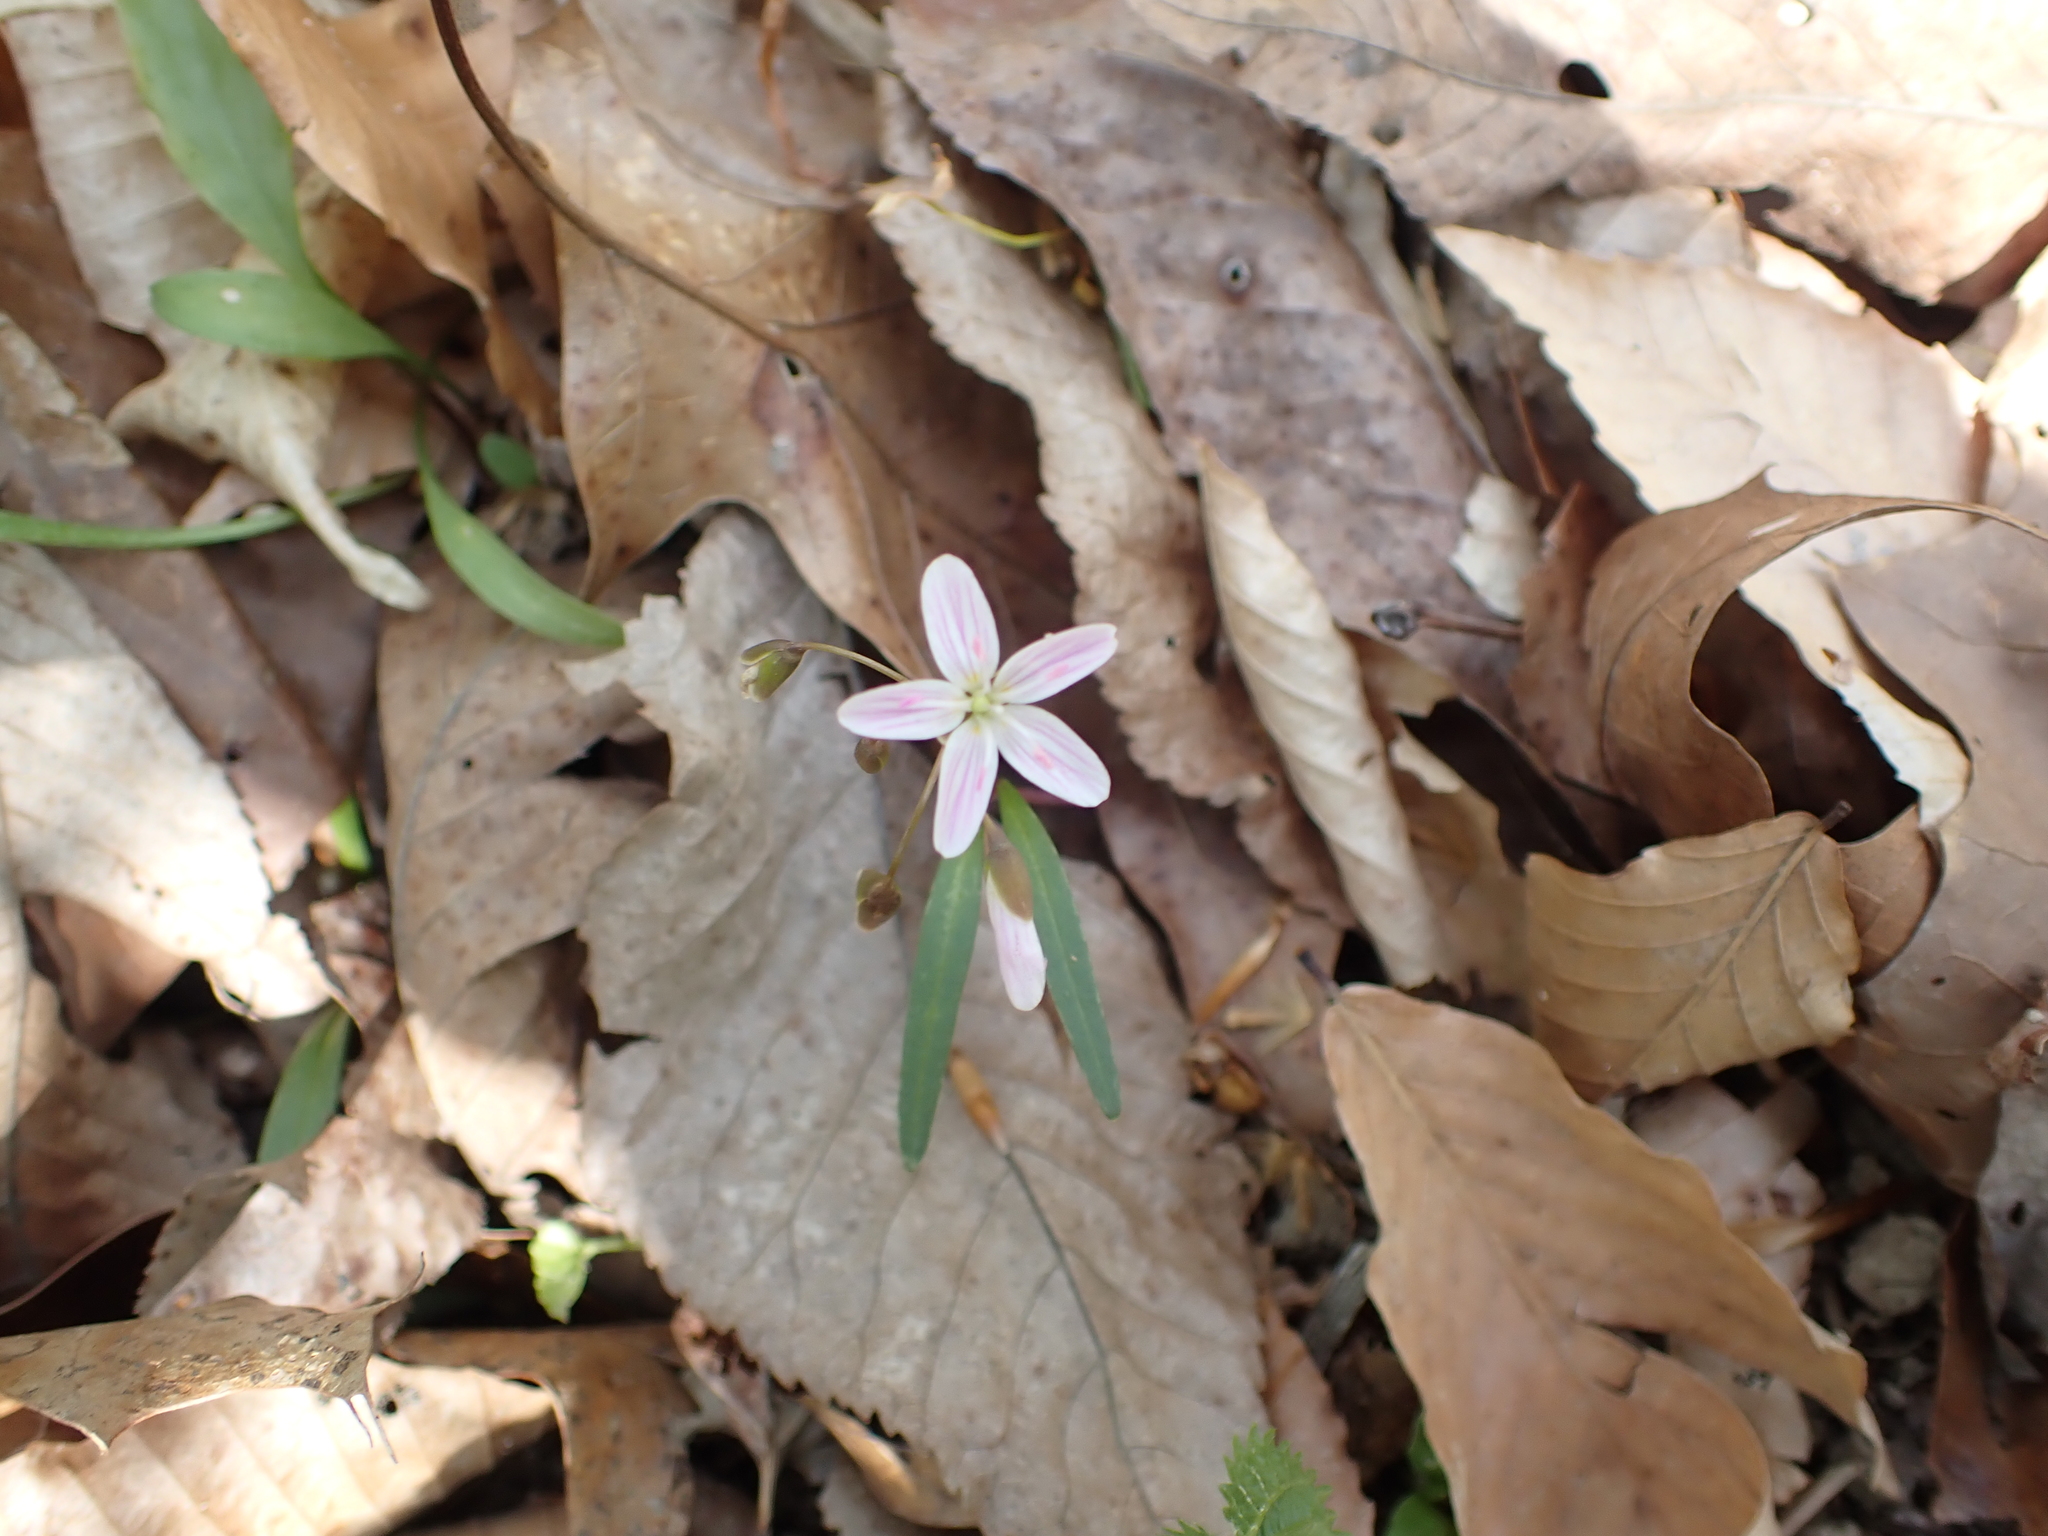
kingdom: Plantae
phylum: Tracheophyta
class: Magnoliopsida
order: Caryophyllales
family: Montiaceae
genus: Claytonia
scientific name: Claytonia virginica
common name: Virginia springbeauty
